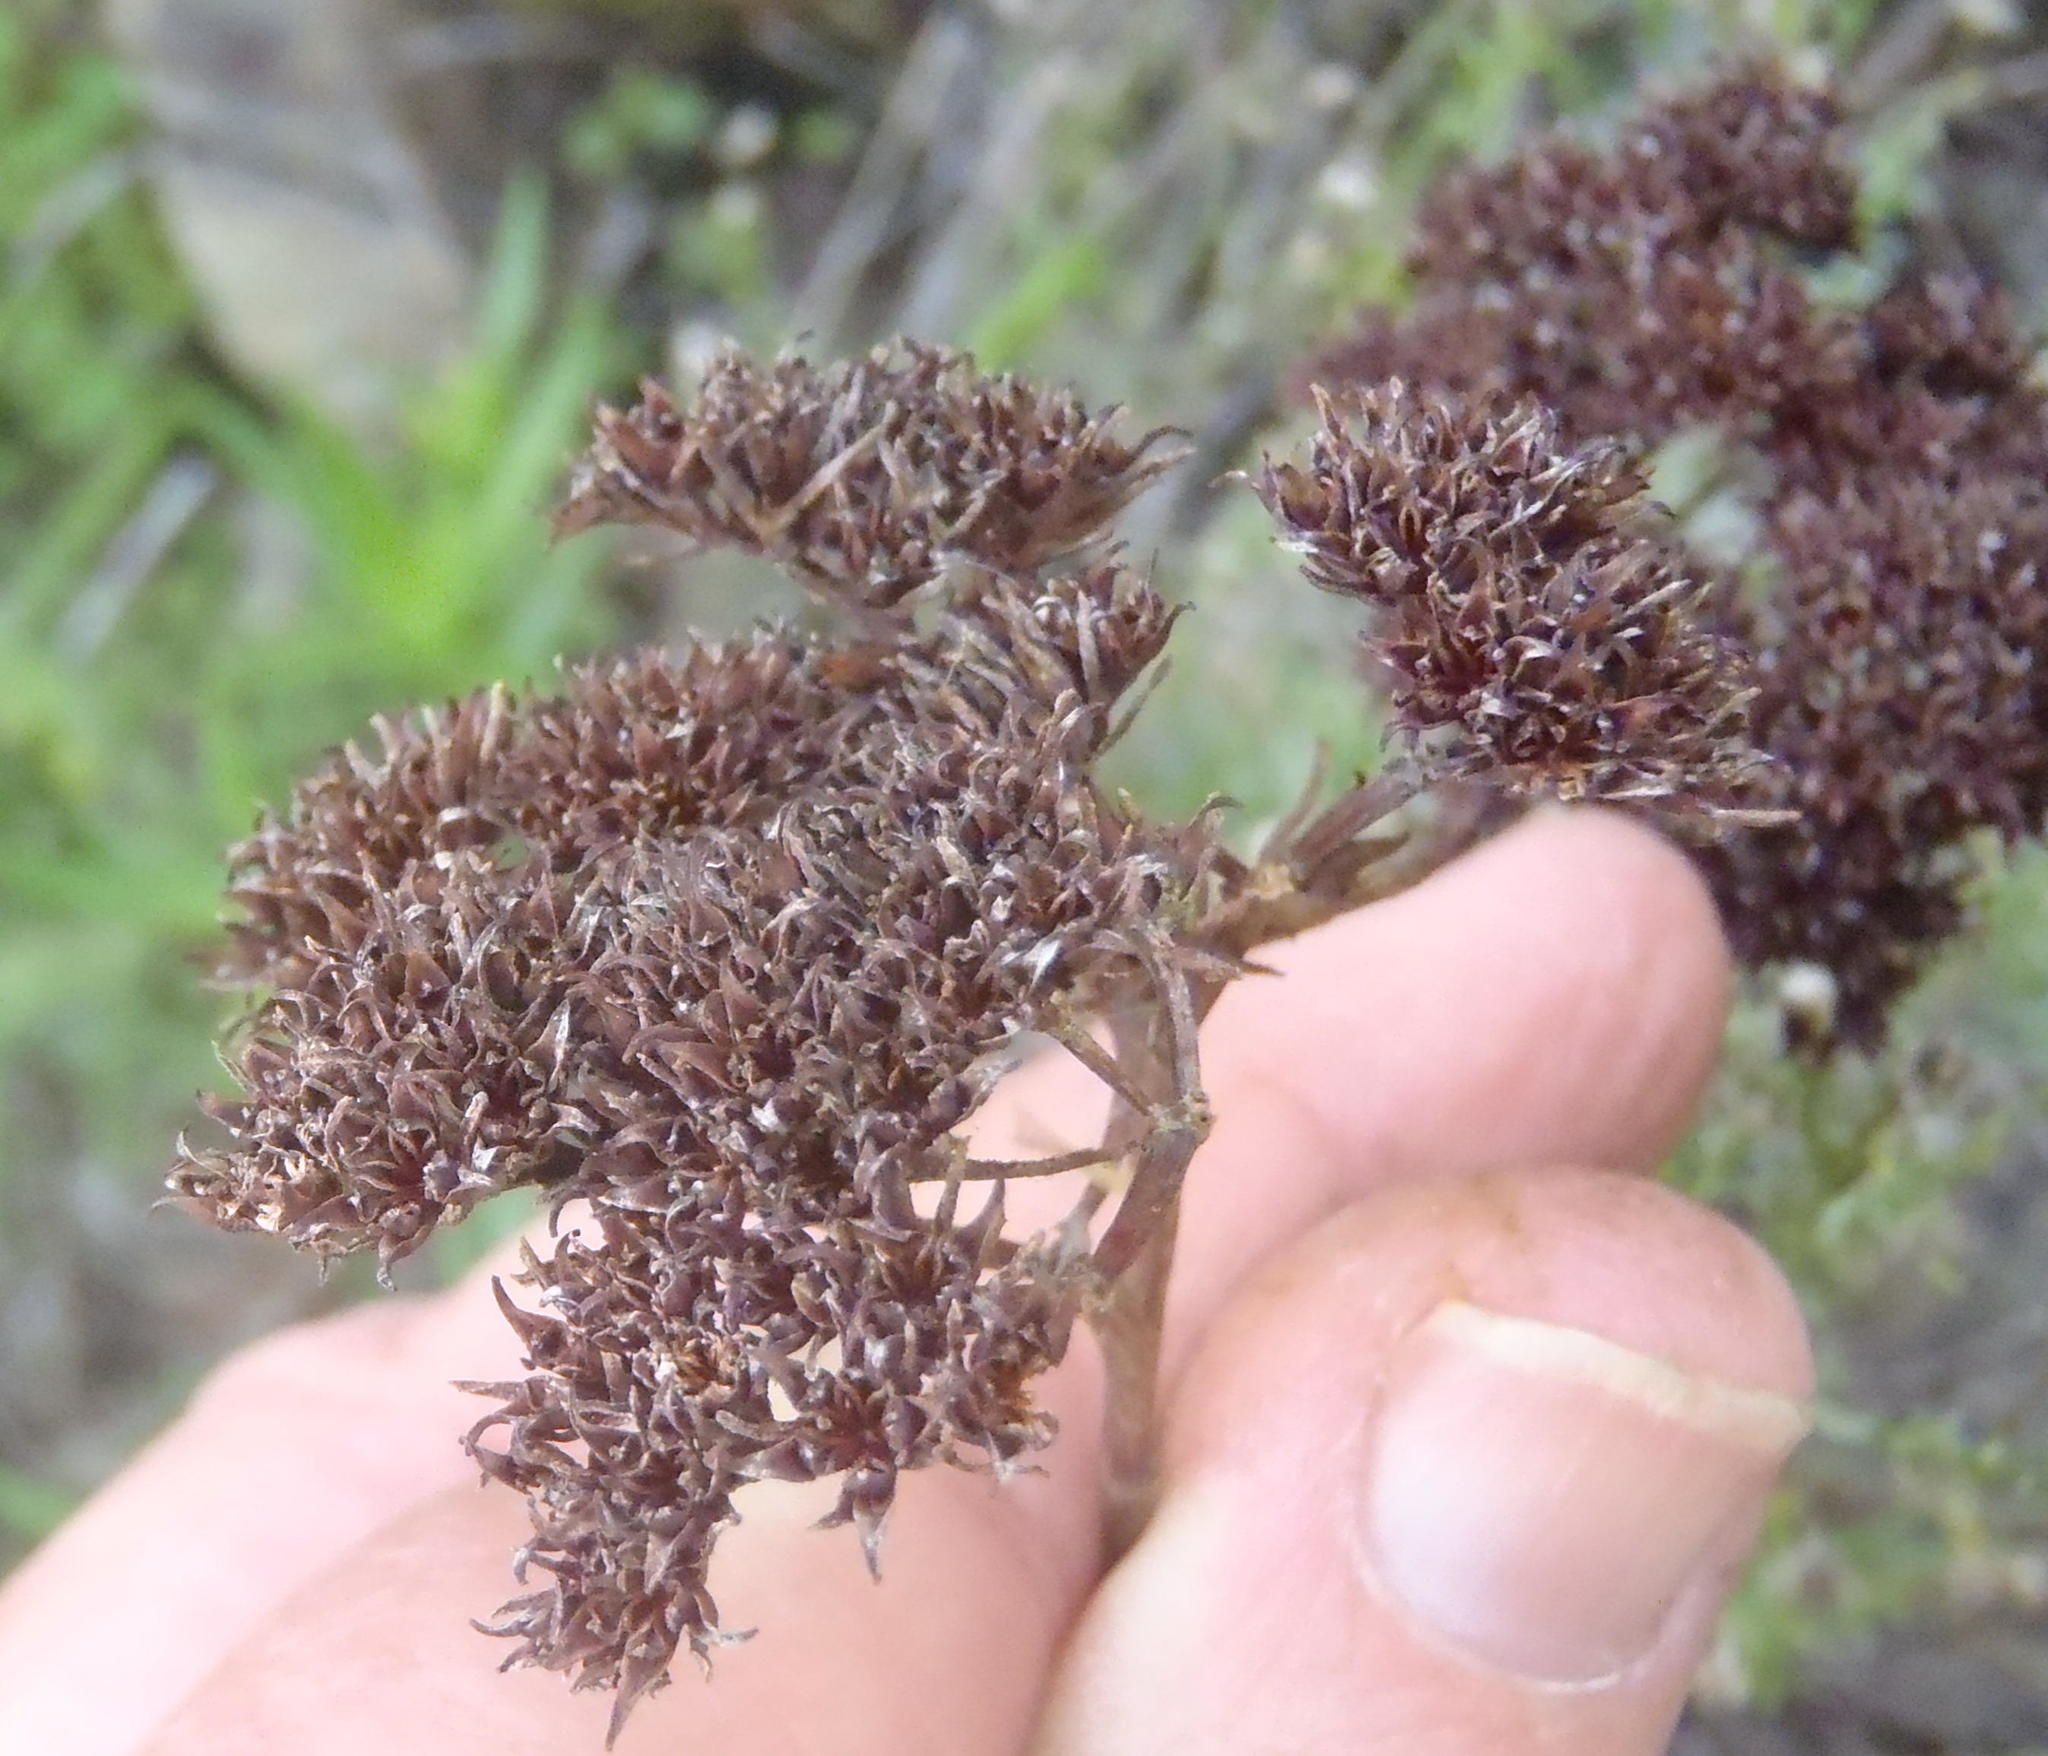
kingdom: Plantae
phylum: Tracheophyta
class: Magnoliopsida
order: Saxifragales
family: Crassulaceae
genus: Crassula
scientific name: Crassula multiflora
